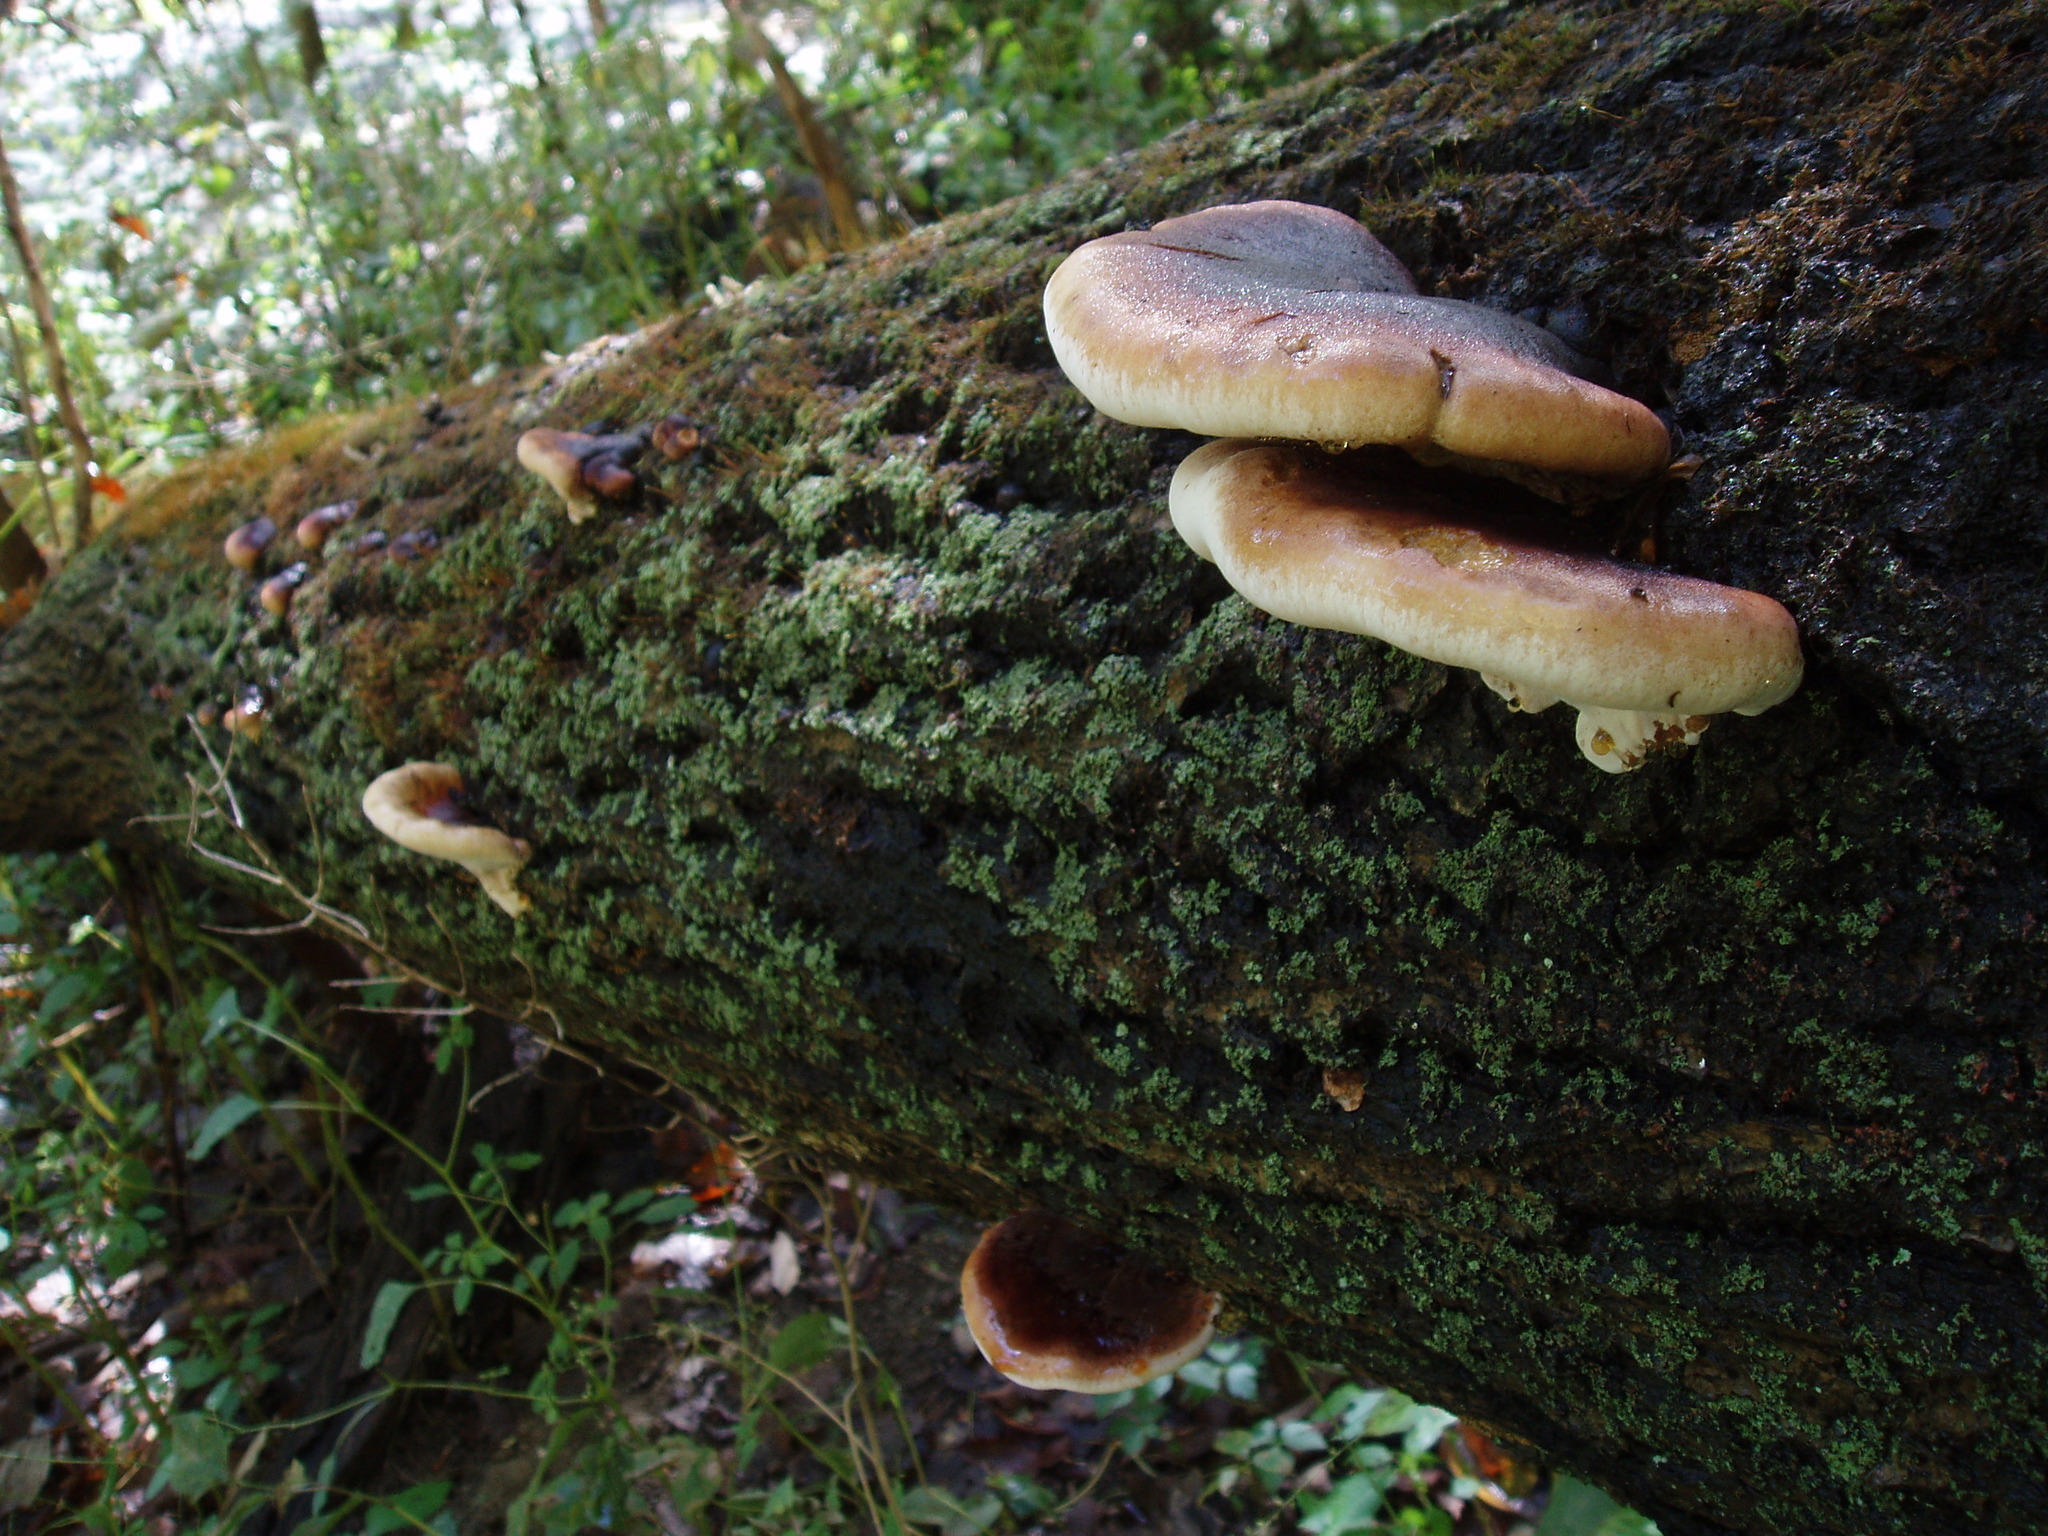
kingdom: Fungi
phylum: Basidiomycota
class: Agaricomycetes
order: Polyporales
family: Ischnodermataceae
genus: Ischnoderma
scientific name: Ischnoderma resinosum
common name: Resinous polypore
